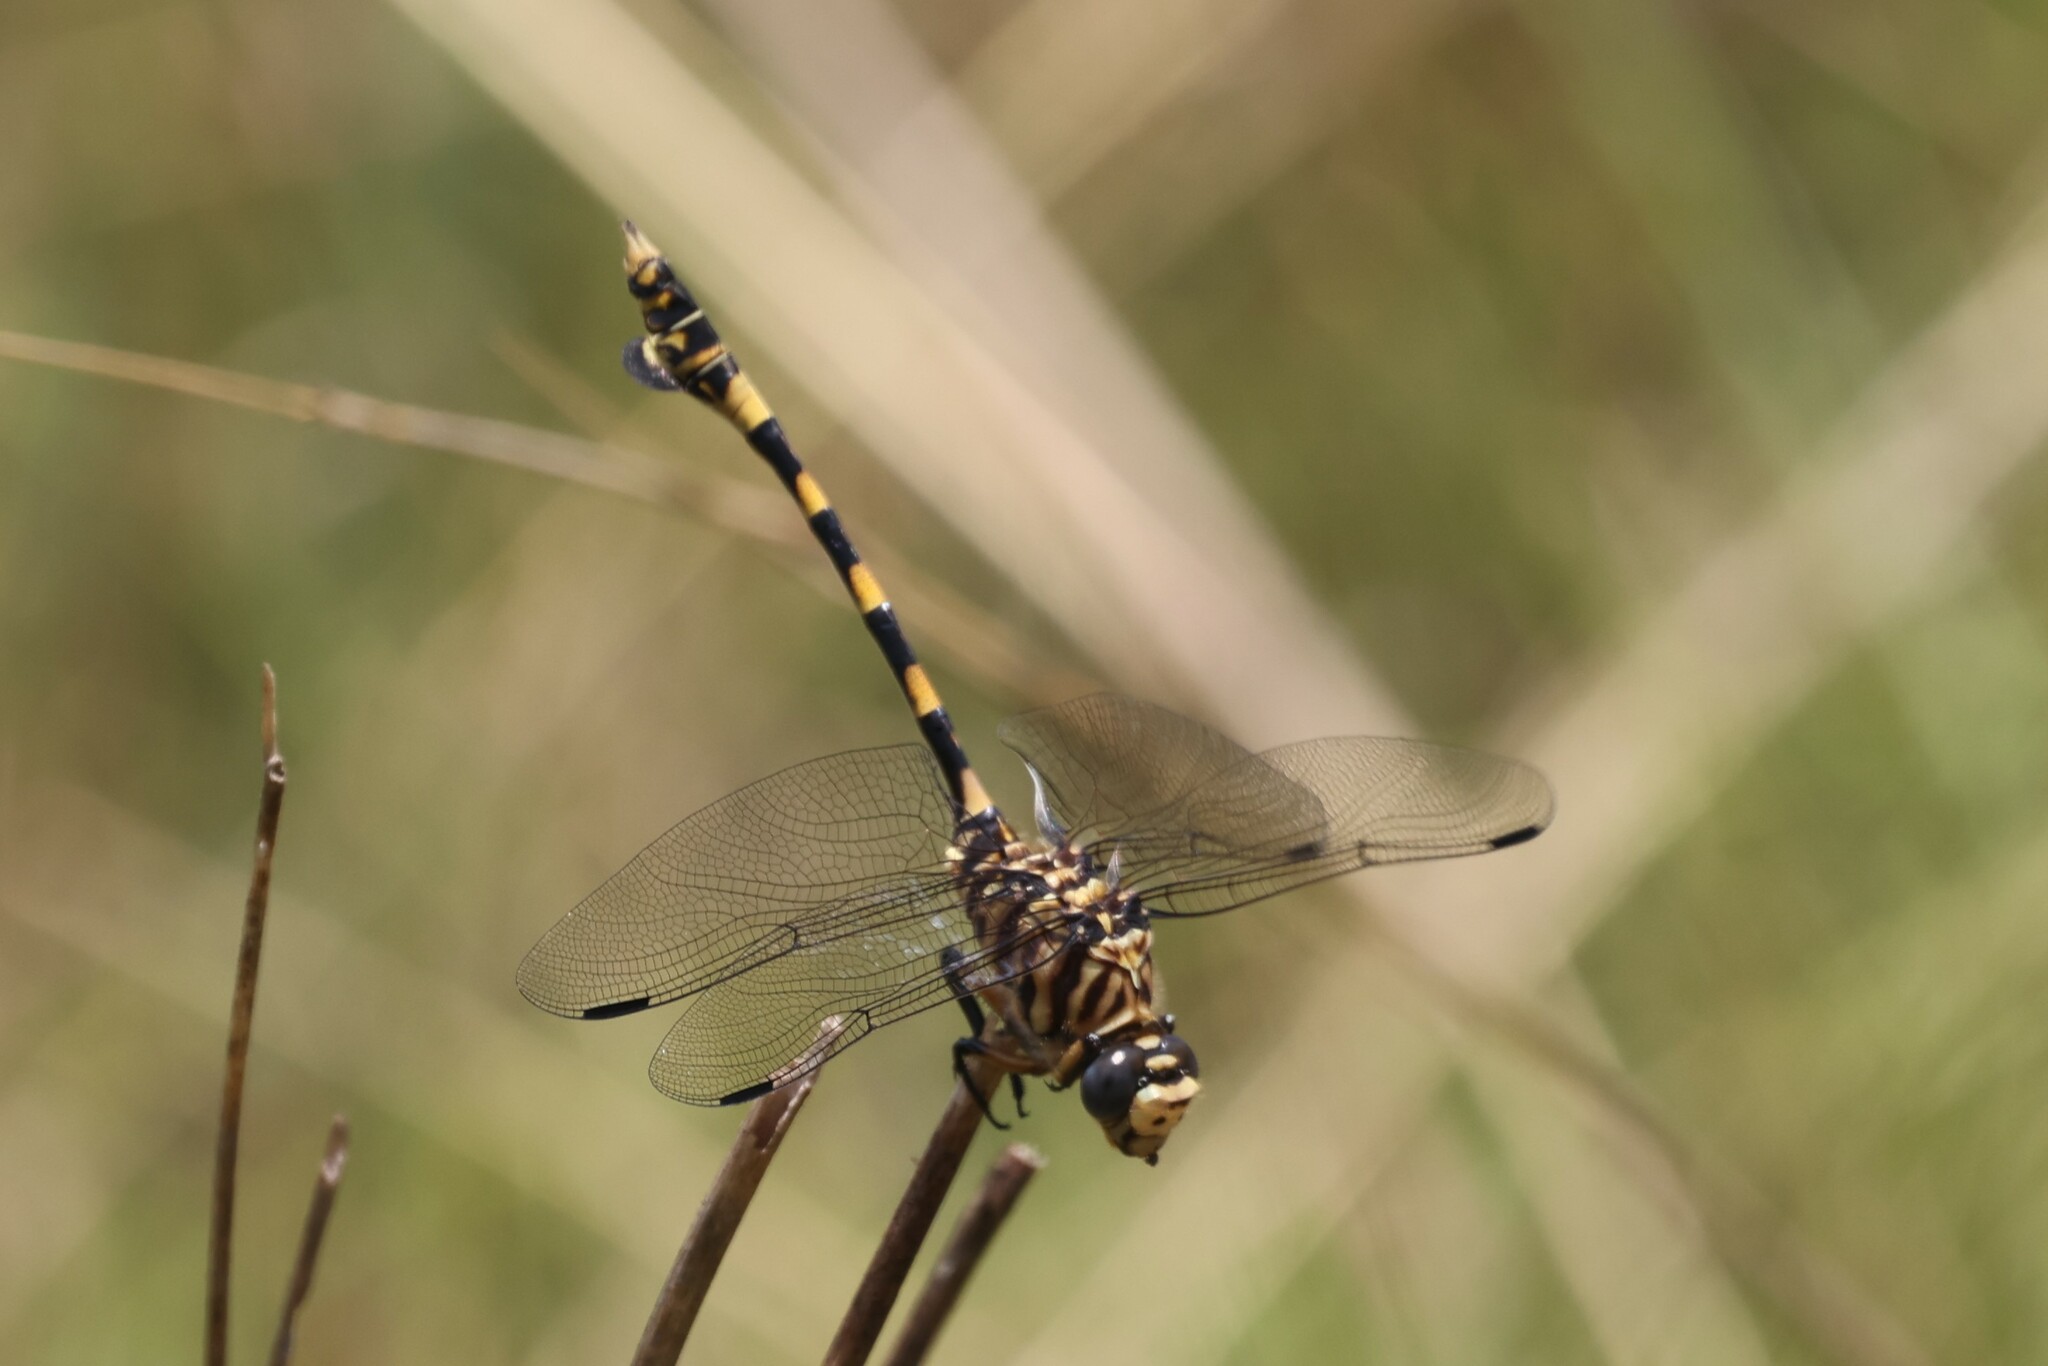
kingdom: Animalia
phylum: Arthropoda
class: Insecta
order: Odonata
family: Gomphidae
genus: Ictinogomphus
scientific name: Ictinogomphus ferox
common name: Common tiger
